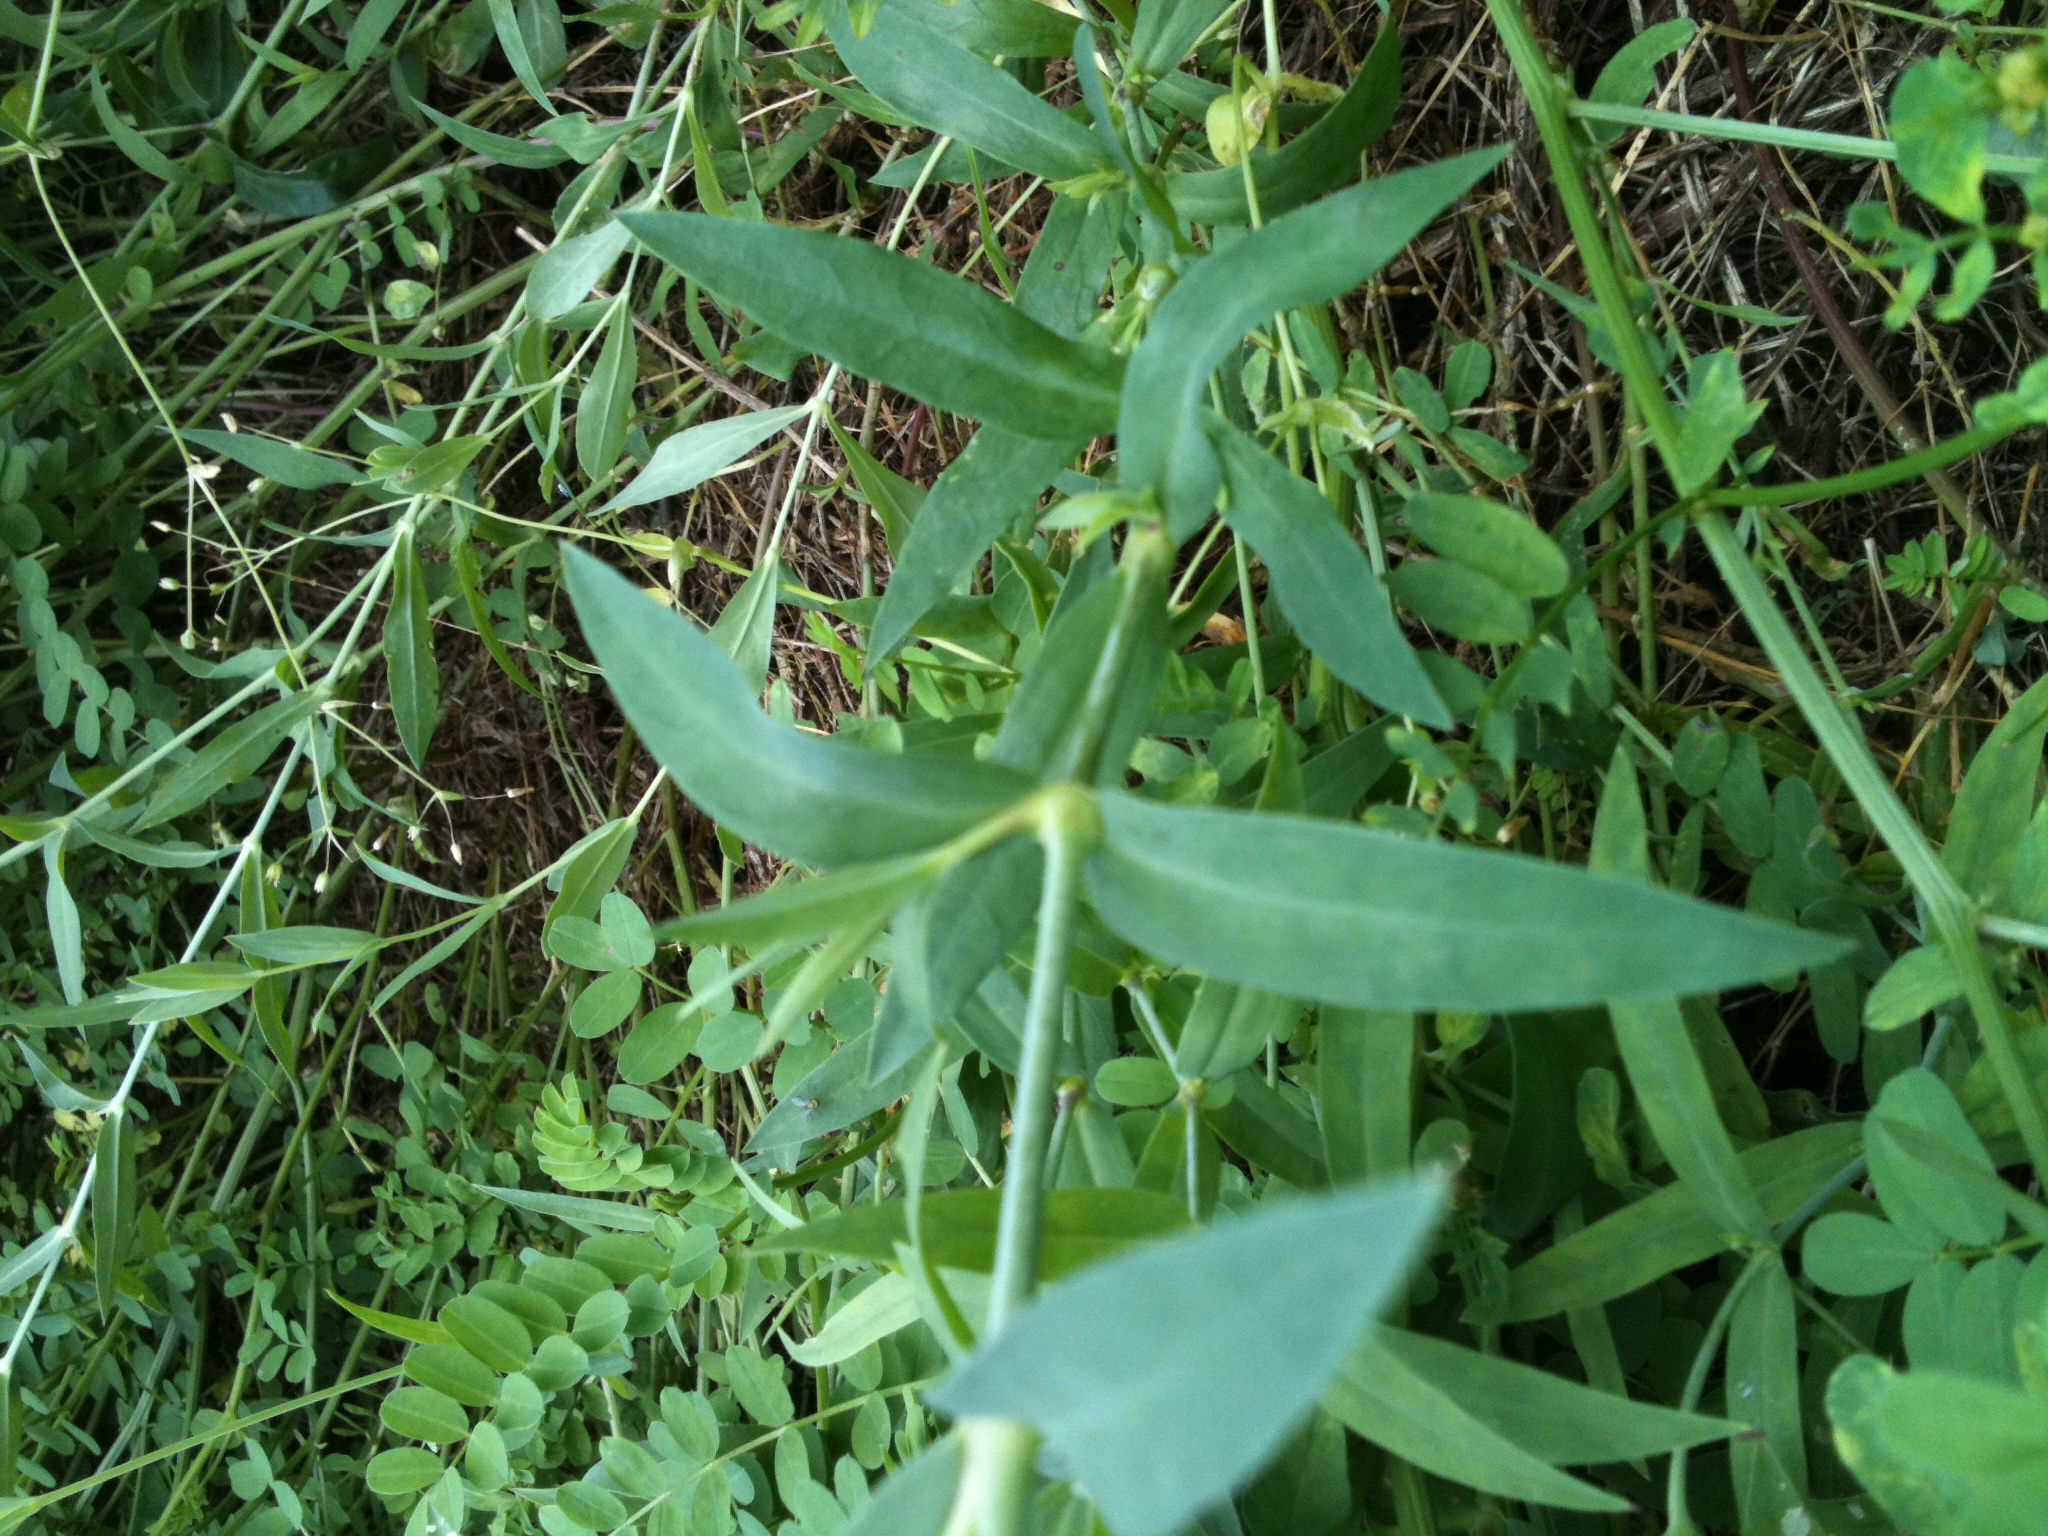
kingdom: Plantae
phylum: Tracheophyta
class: Magnoliopsida
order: Caryophyllales
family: Caryophyllaceae
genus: Silene
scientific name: Silene vulgaris
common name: Bladder campion
